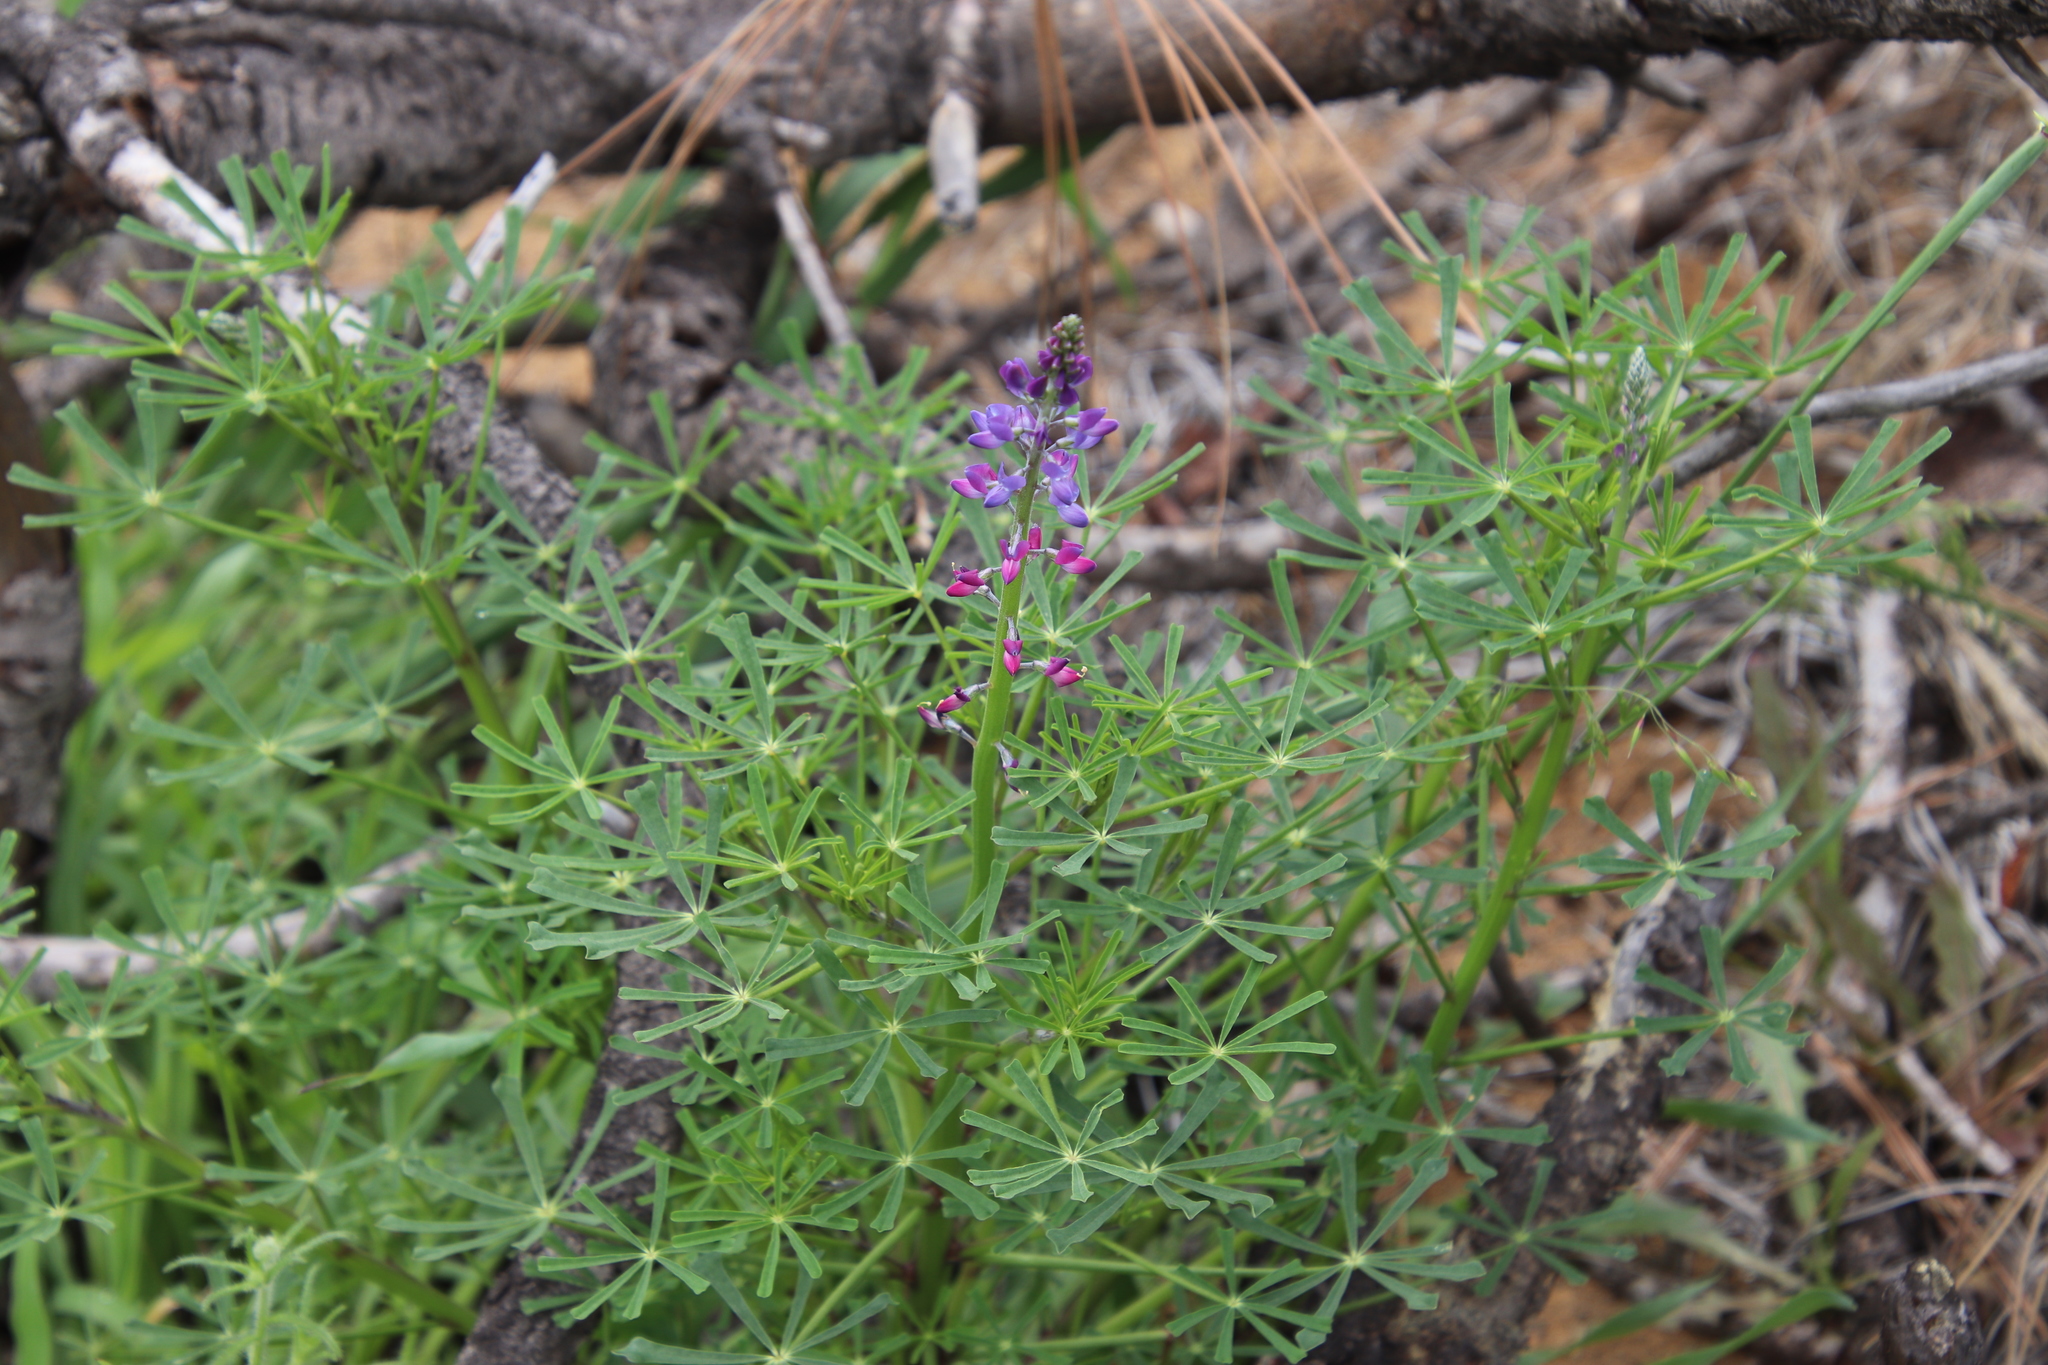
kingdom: Plantae
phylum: Tracheophyta
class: Magnoliopsida
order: Fabales
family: Fabaceae
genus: Lupinus
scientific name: Lupinus truncatus
